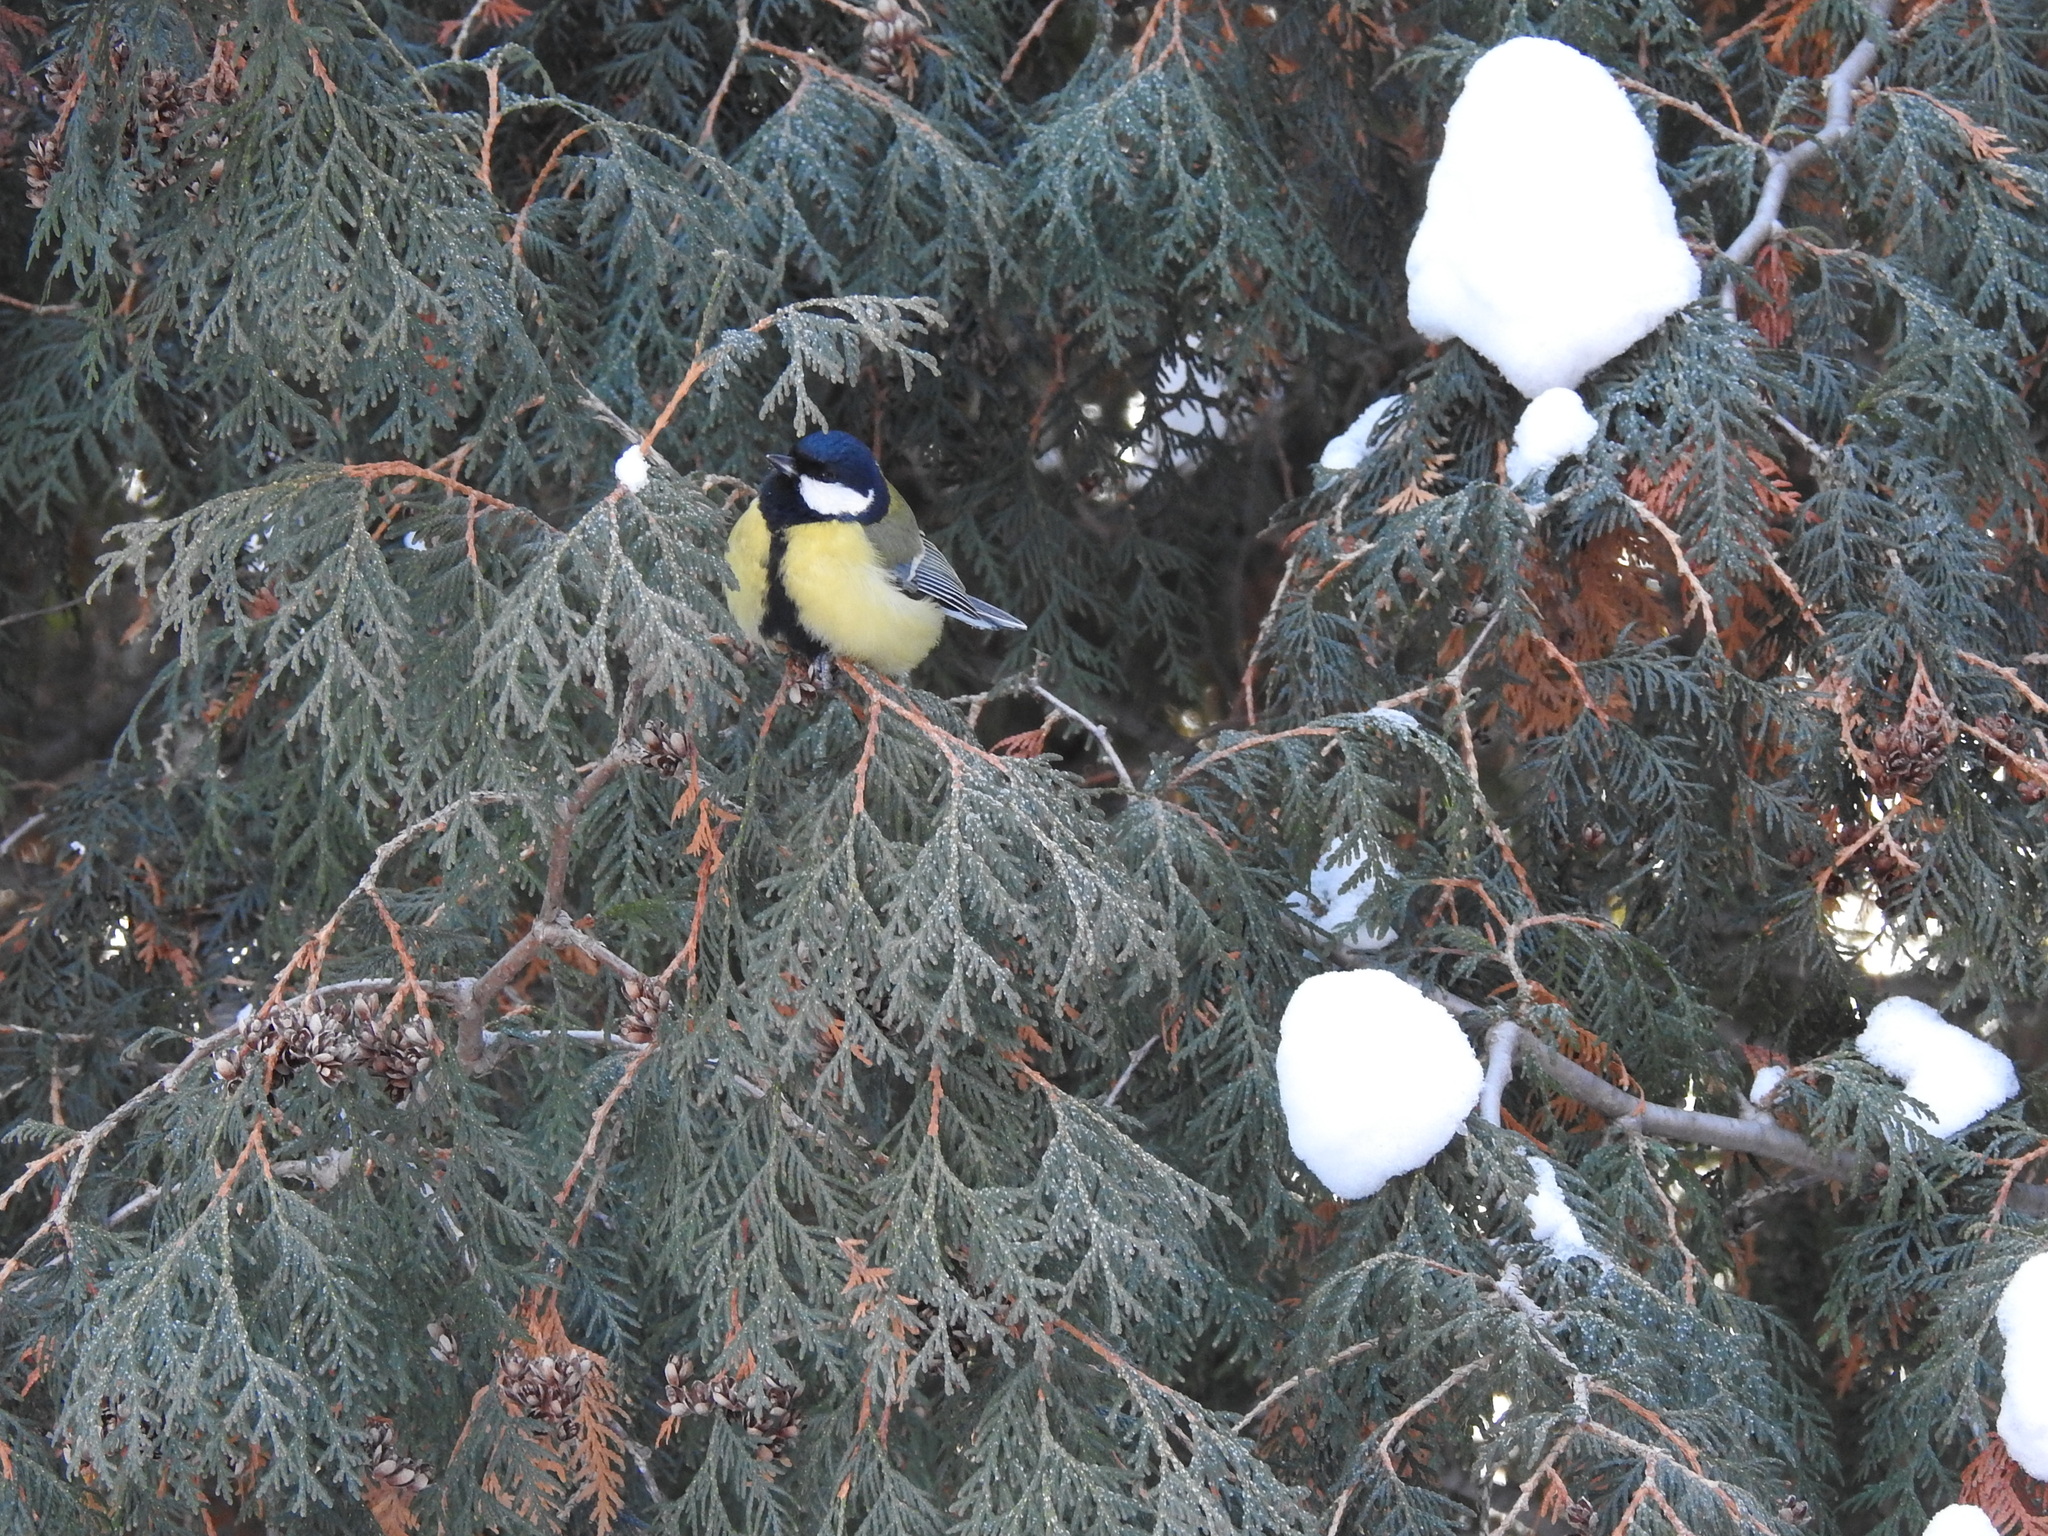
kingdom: Animalia
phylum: Chordata
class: Aves
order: Passeriformes
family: Paridae
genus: Parus
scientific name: Parus major
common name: Great tit
